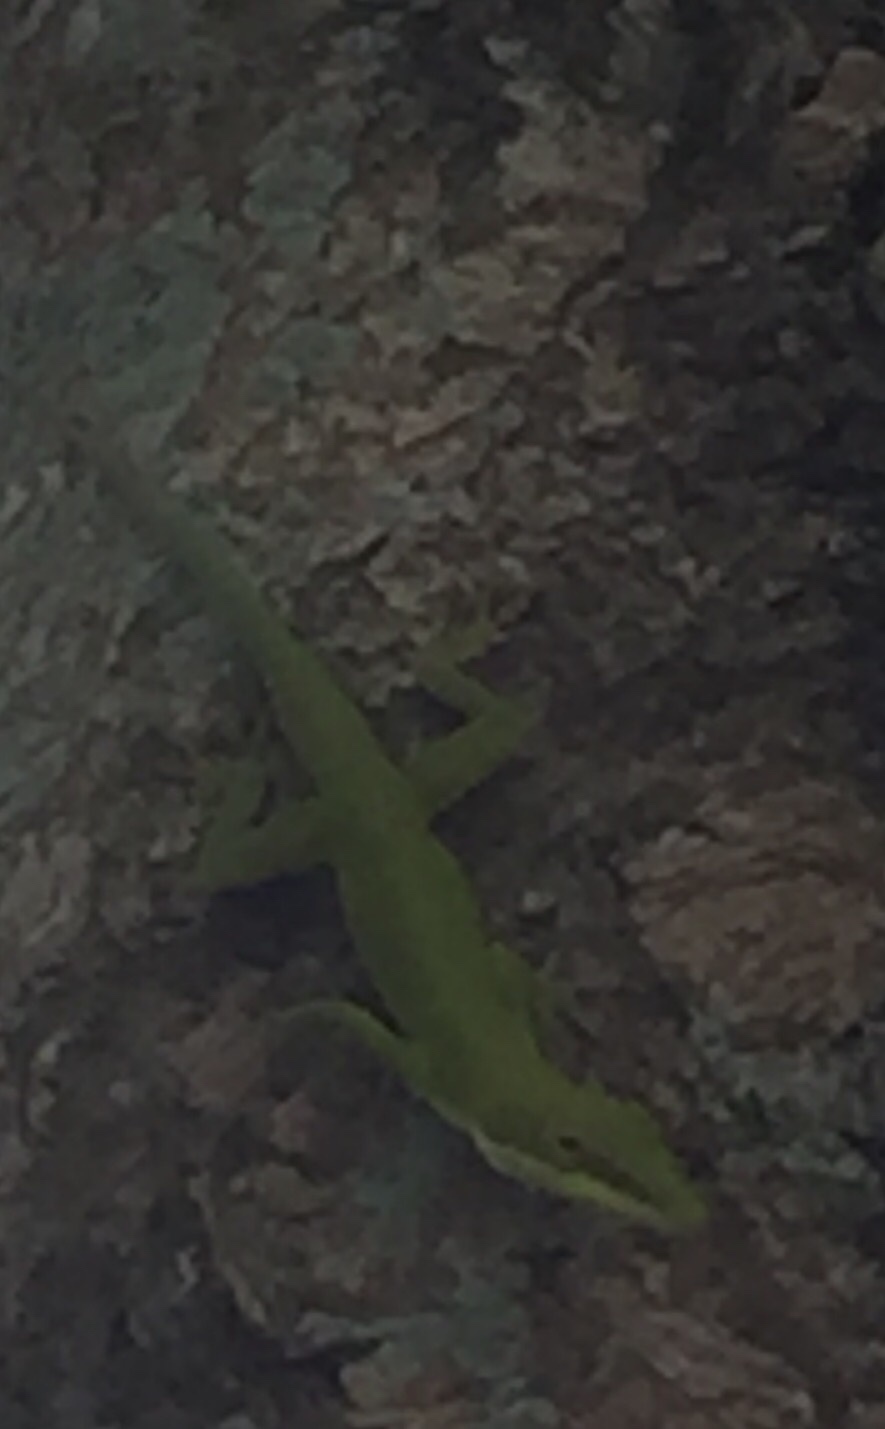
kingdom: Animalia
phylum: Chordata
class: Squamata
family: Dactyloidae
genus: Anolis
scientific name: Anolis porcatus
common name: Cuban green anole
